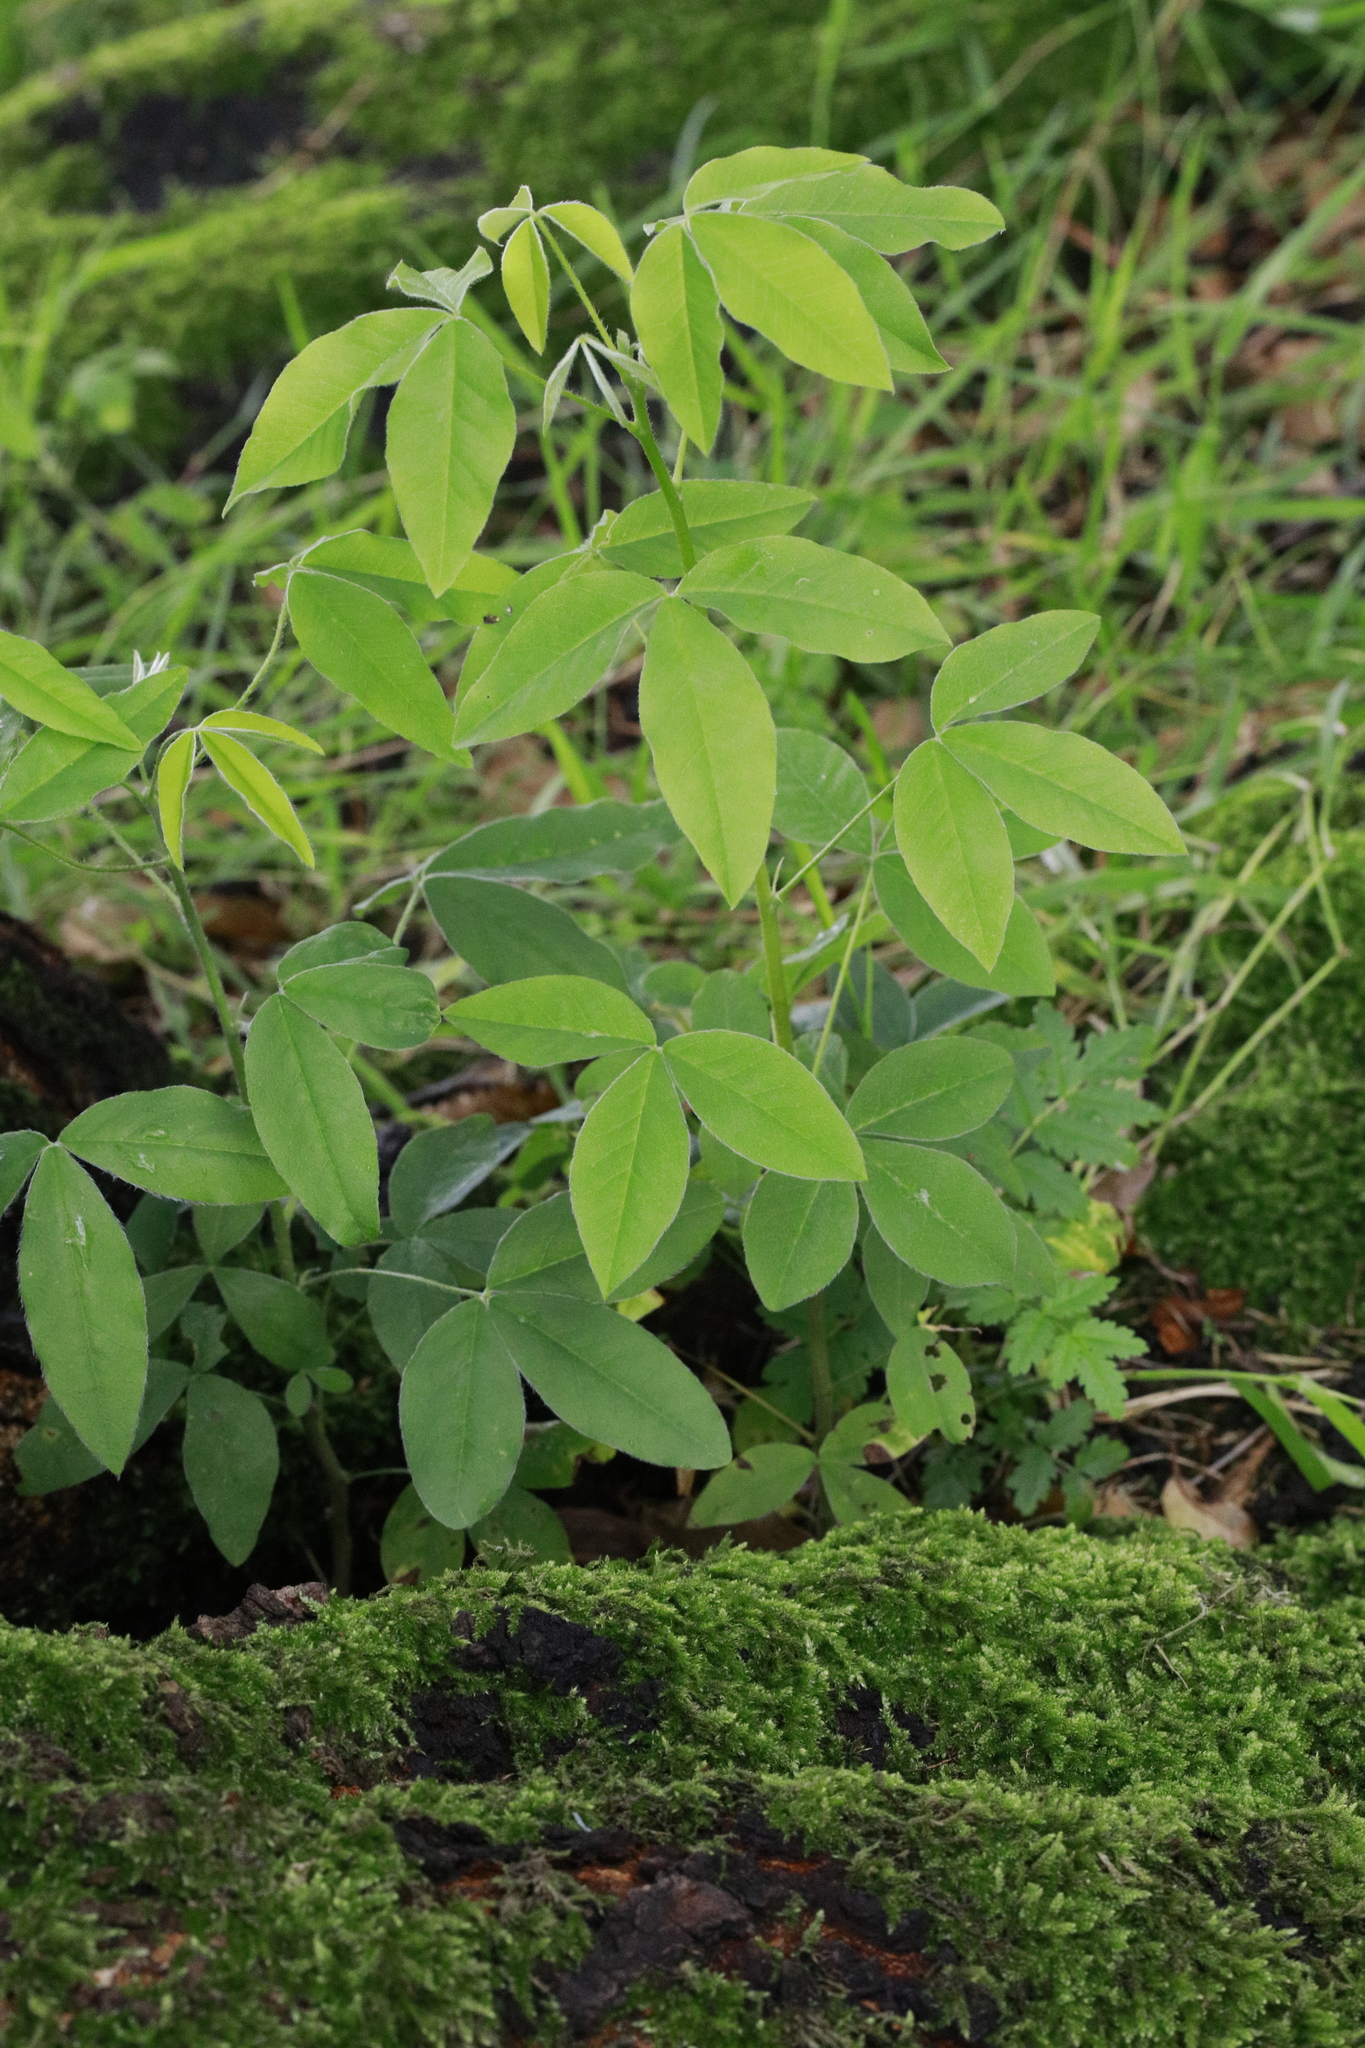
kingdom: Plantae
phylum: Tracheophyta
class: Magnoliopsida
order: Fabales
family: Fabaceae
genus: Laburnum
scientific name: Laburnum anagyroides
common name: Laburnum
